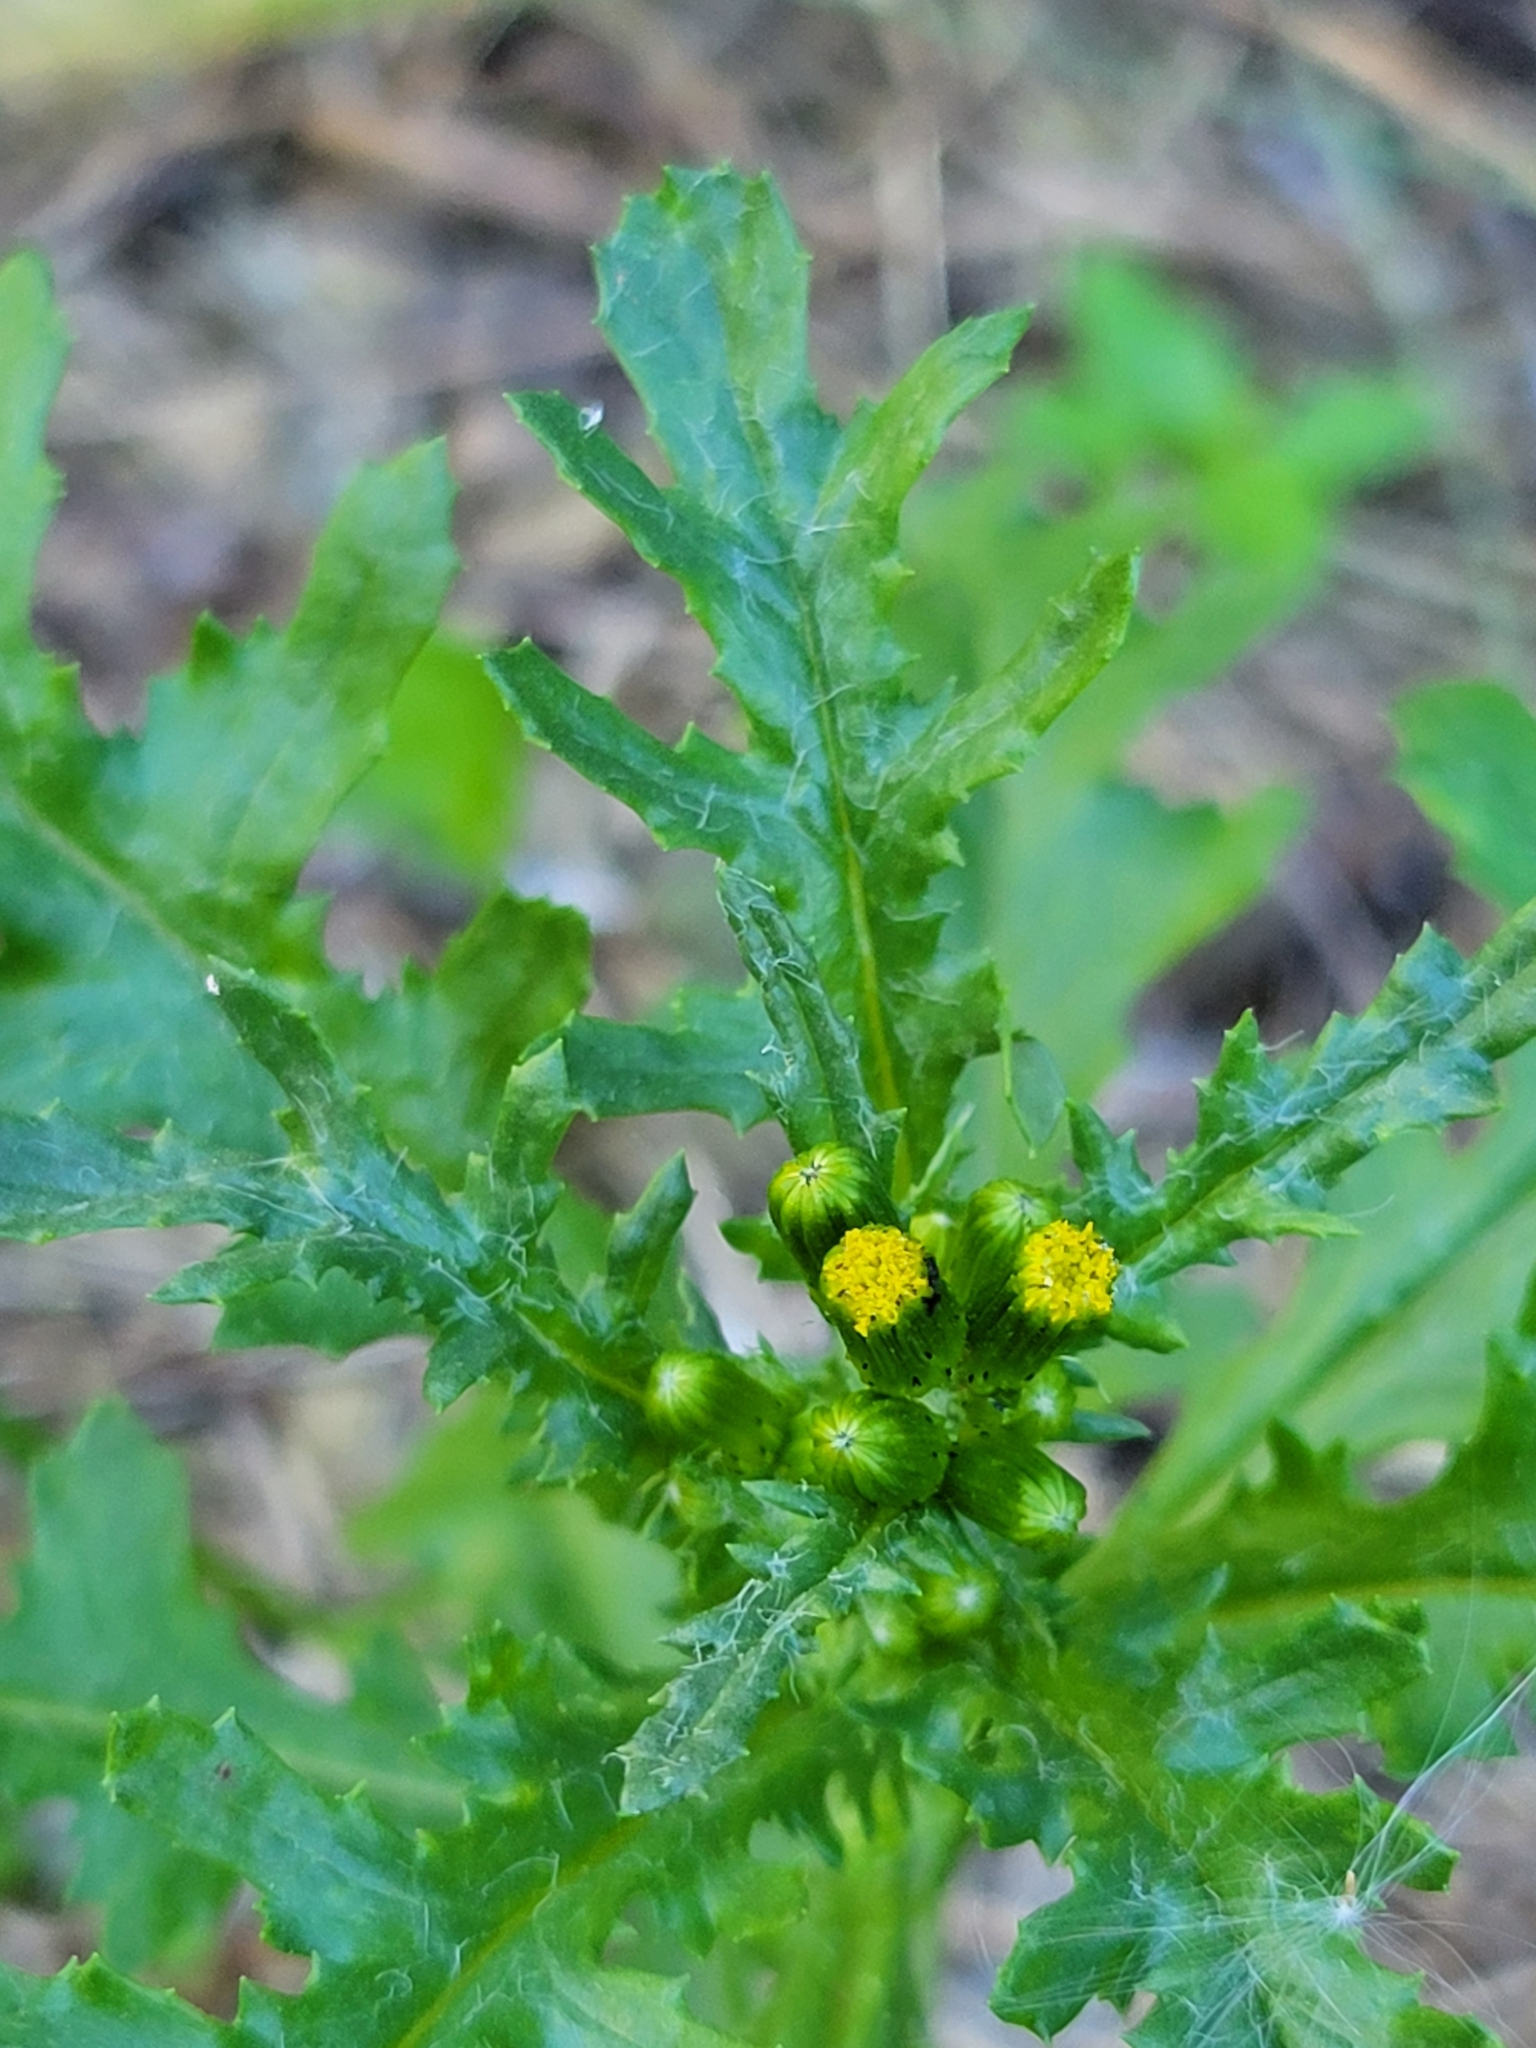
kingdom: Plantae
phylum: Tracheophyta
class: Magnoliopsida
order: Asterales
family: Asteraceae
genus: Senecio
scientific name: Senecio vulgaris
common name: Old-man-in-the-spring
